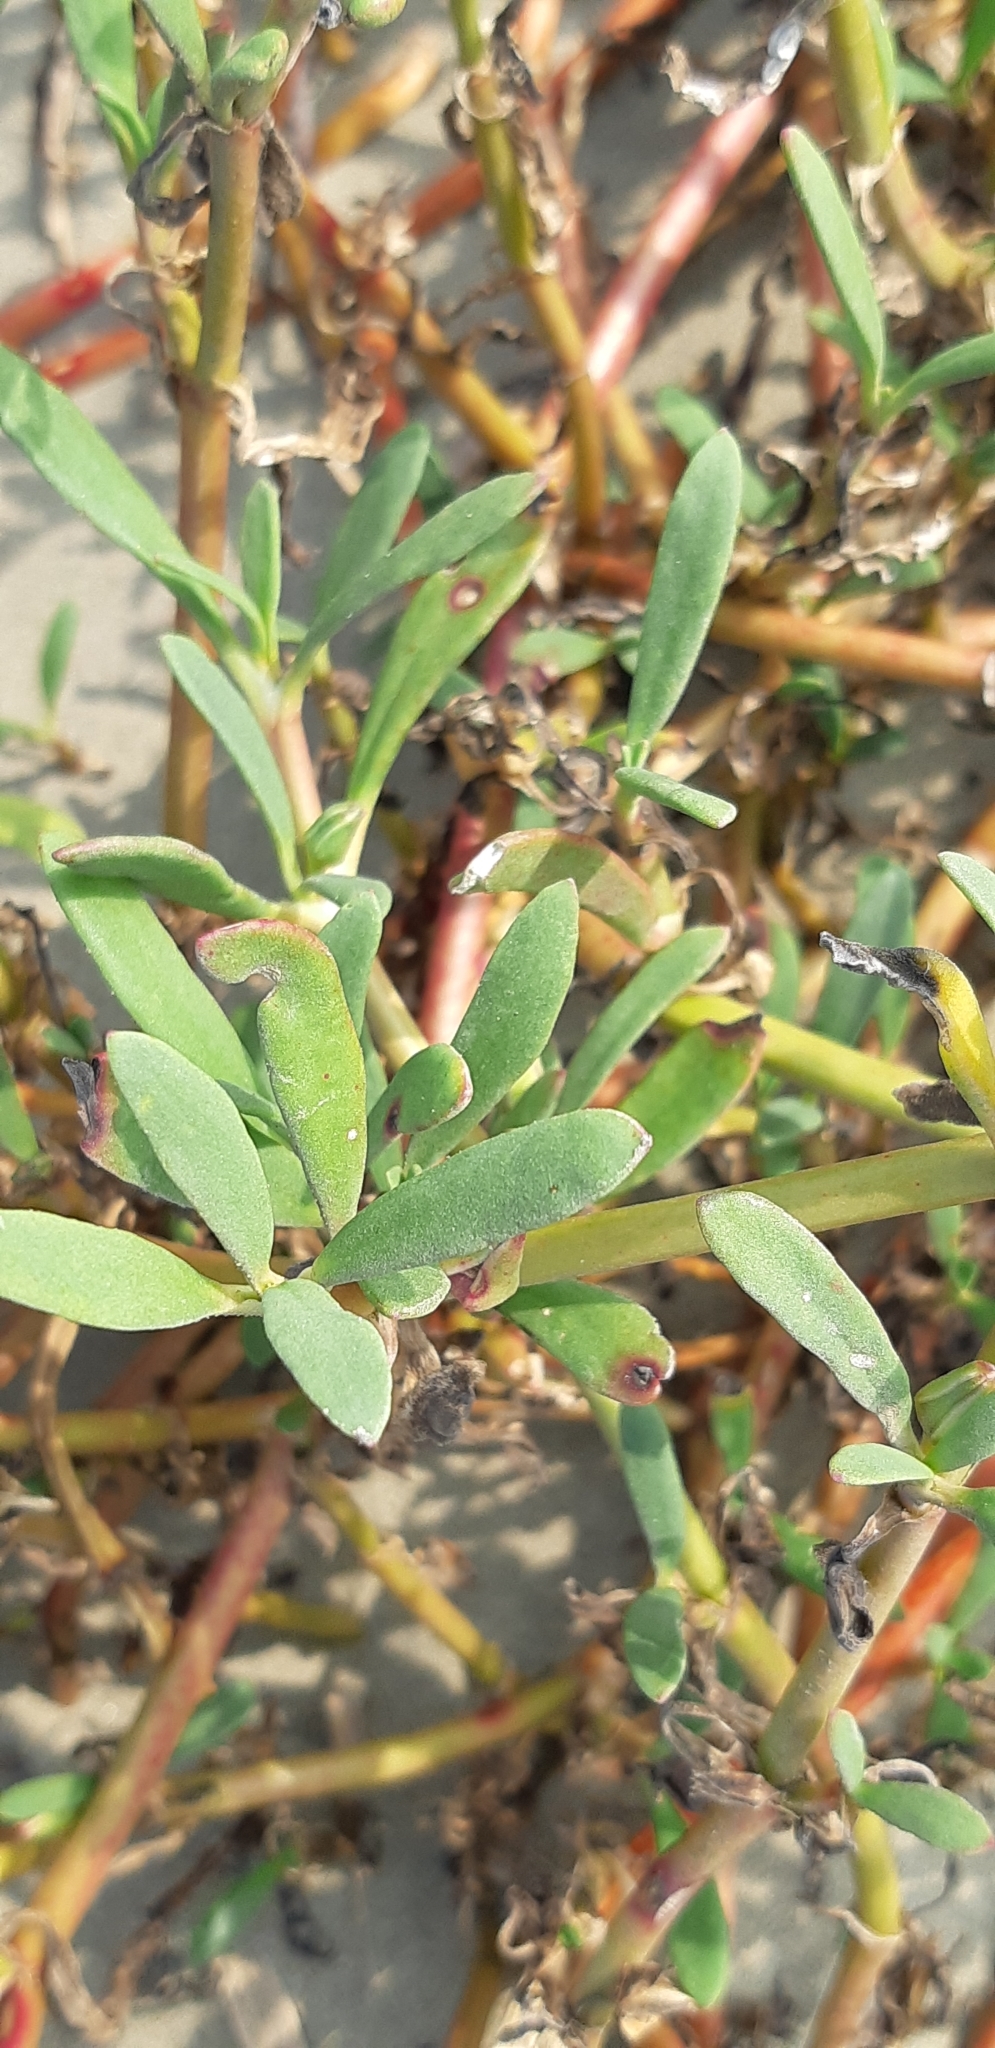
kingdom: Plantae
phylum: Tracheophyta
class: Magnoliopsida
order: Caryophyllales
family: Aizoaceae
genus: Sesuvium
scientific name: Sesuvium portulacastrum
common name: Sea-purslane
